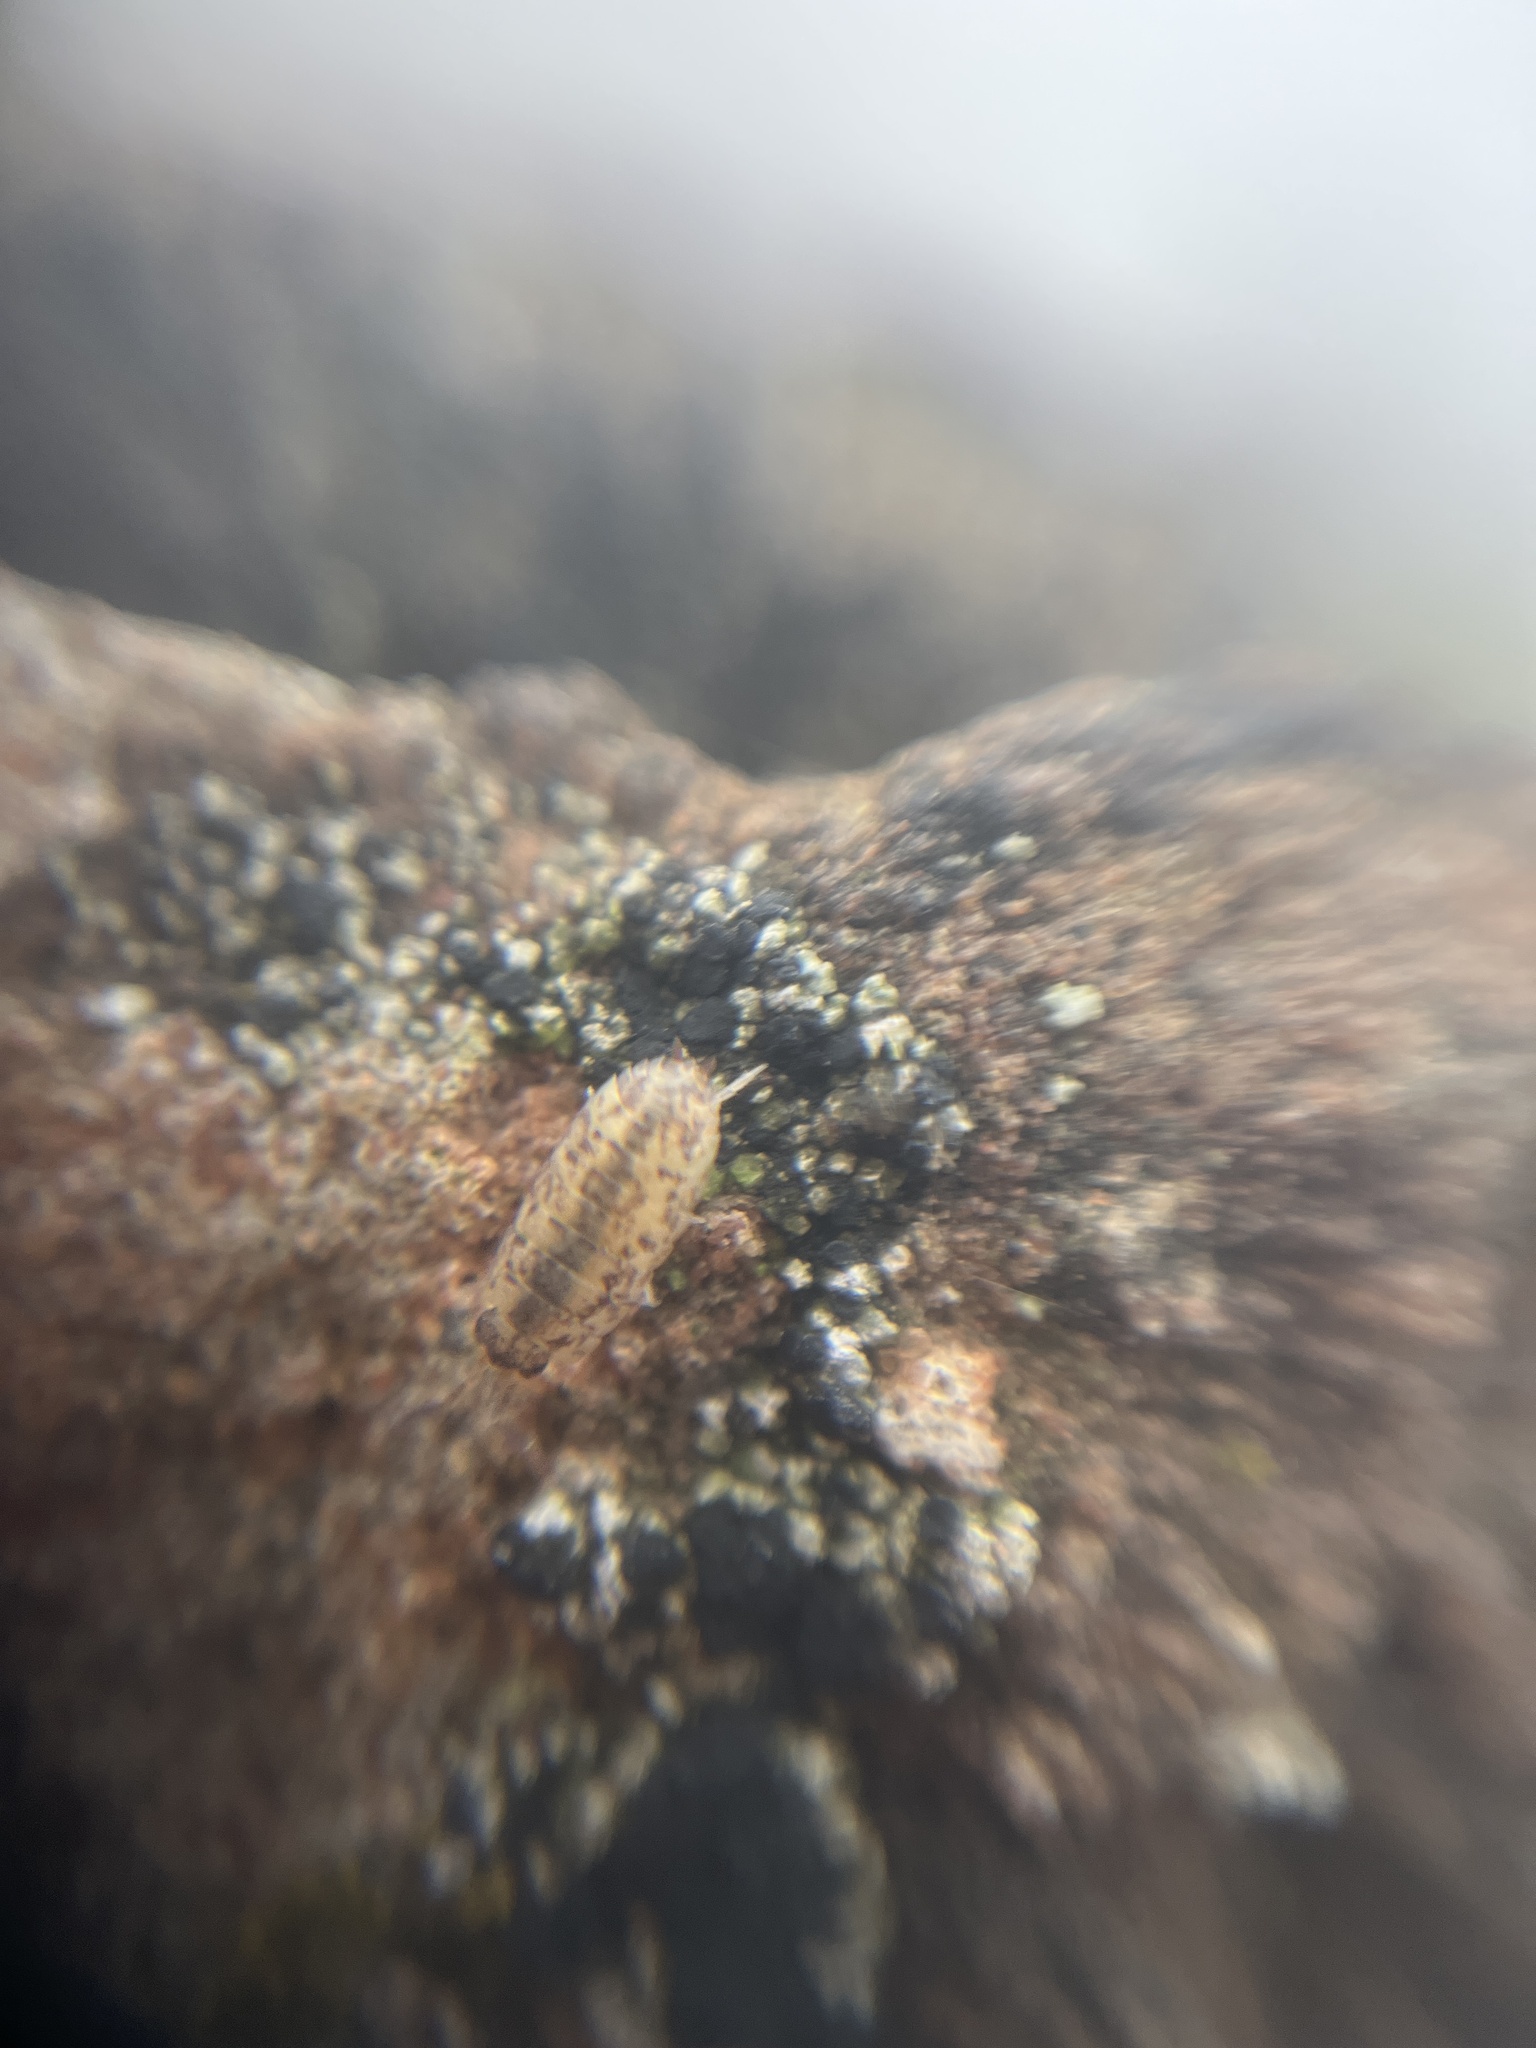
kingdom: Animalia
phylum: Arthropoda
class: Malacostraca
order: Isopoda
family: Porcellionidae
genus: Porcellio
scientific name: Porcellio scaber
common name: Common rough woodlouse
